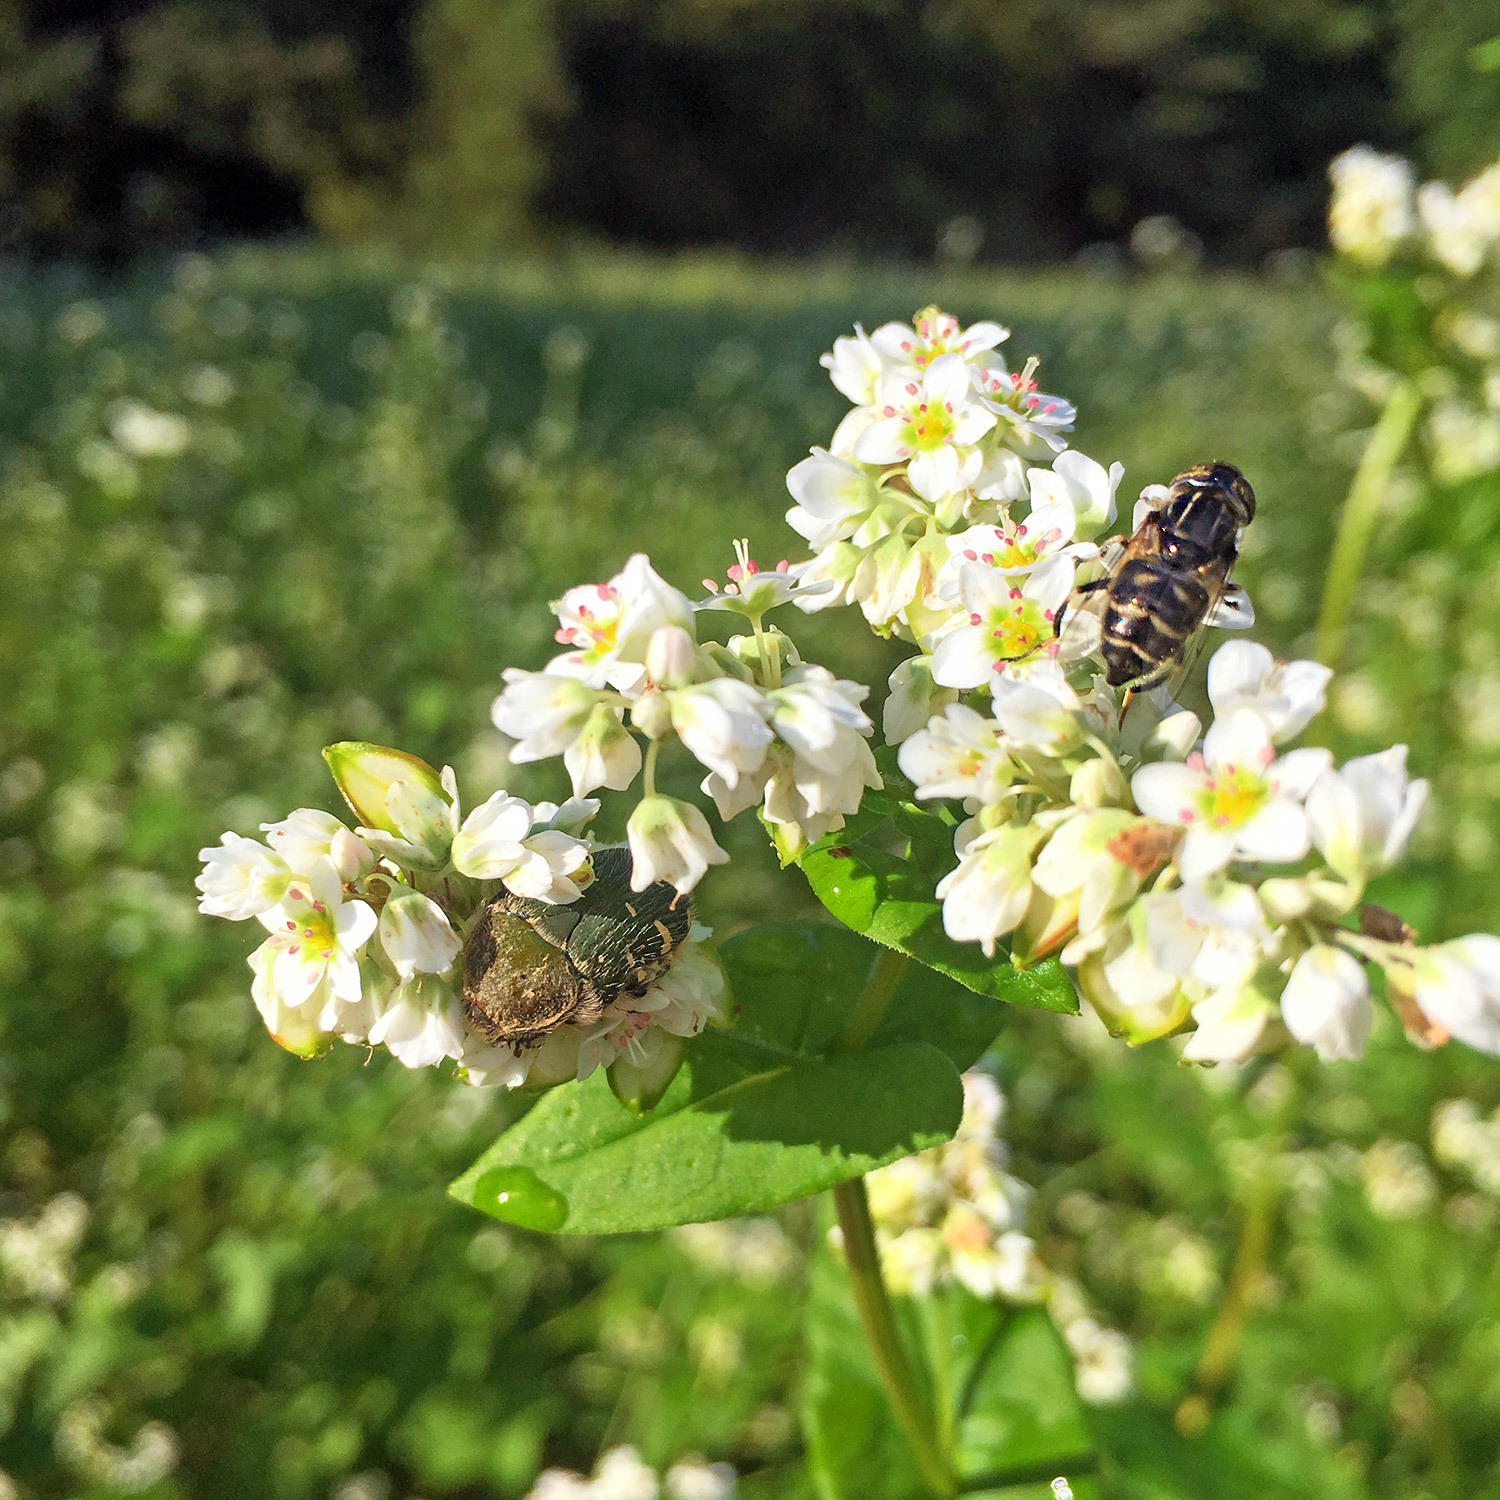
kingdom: Animalia
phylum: Arthropoda
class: Insecta
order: Diptera
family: Syrphidae
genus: Eristalinus
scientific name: Eristalinus tarsalis
